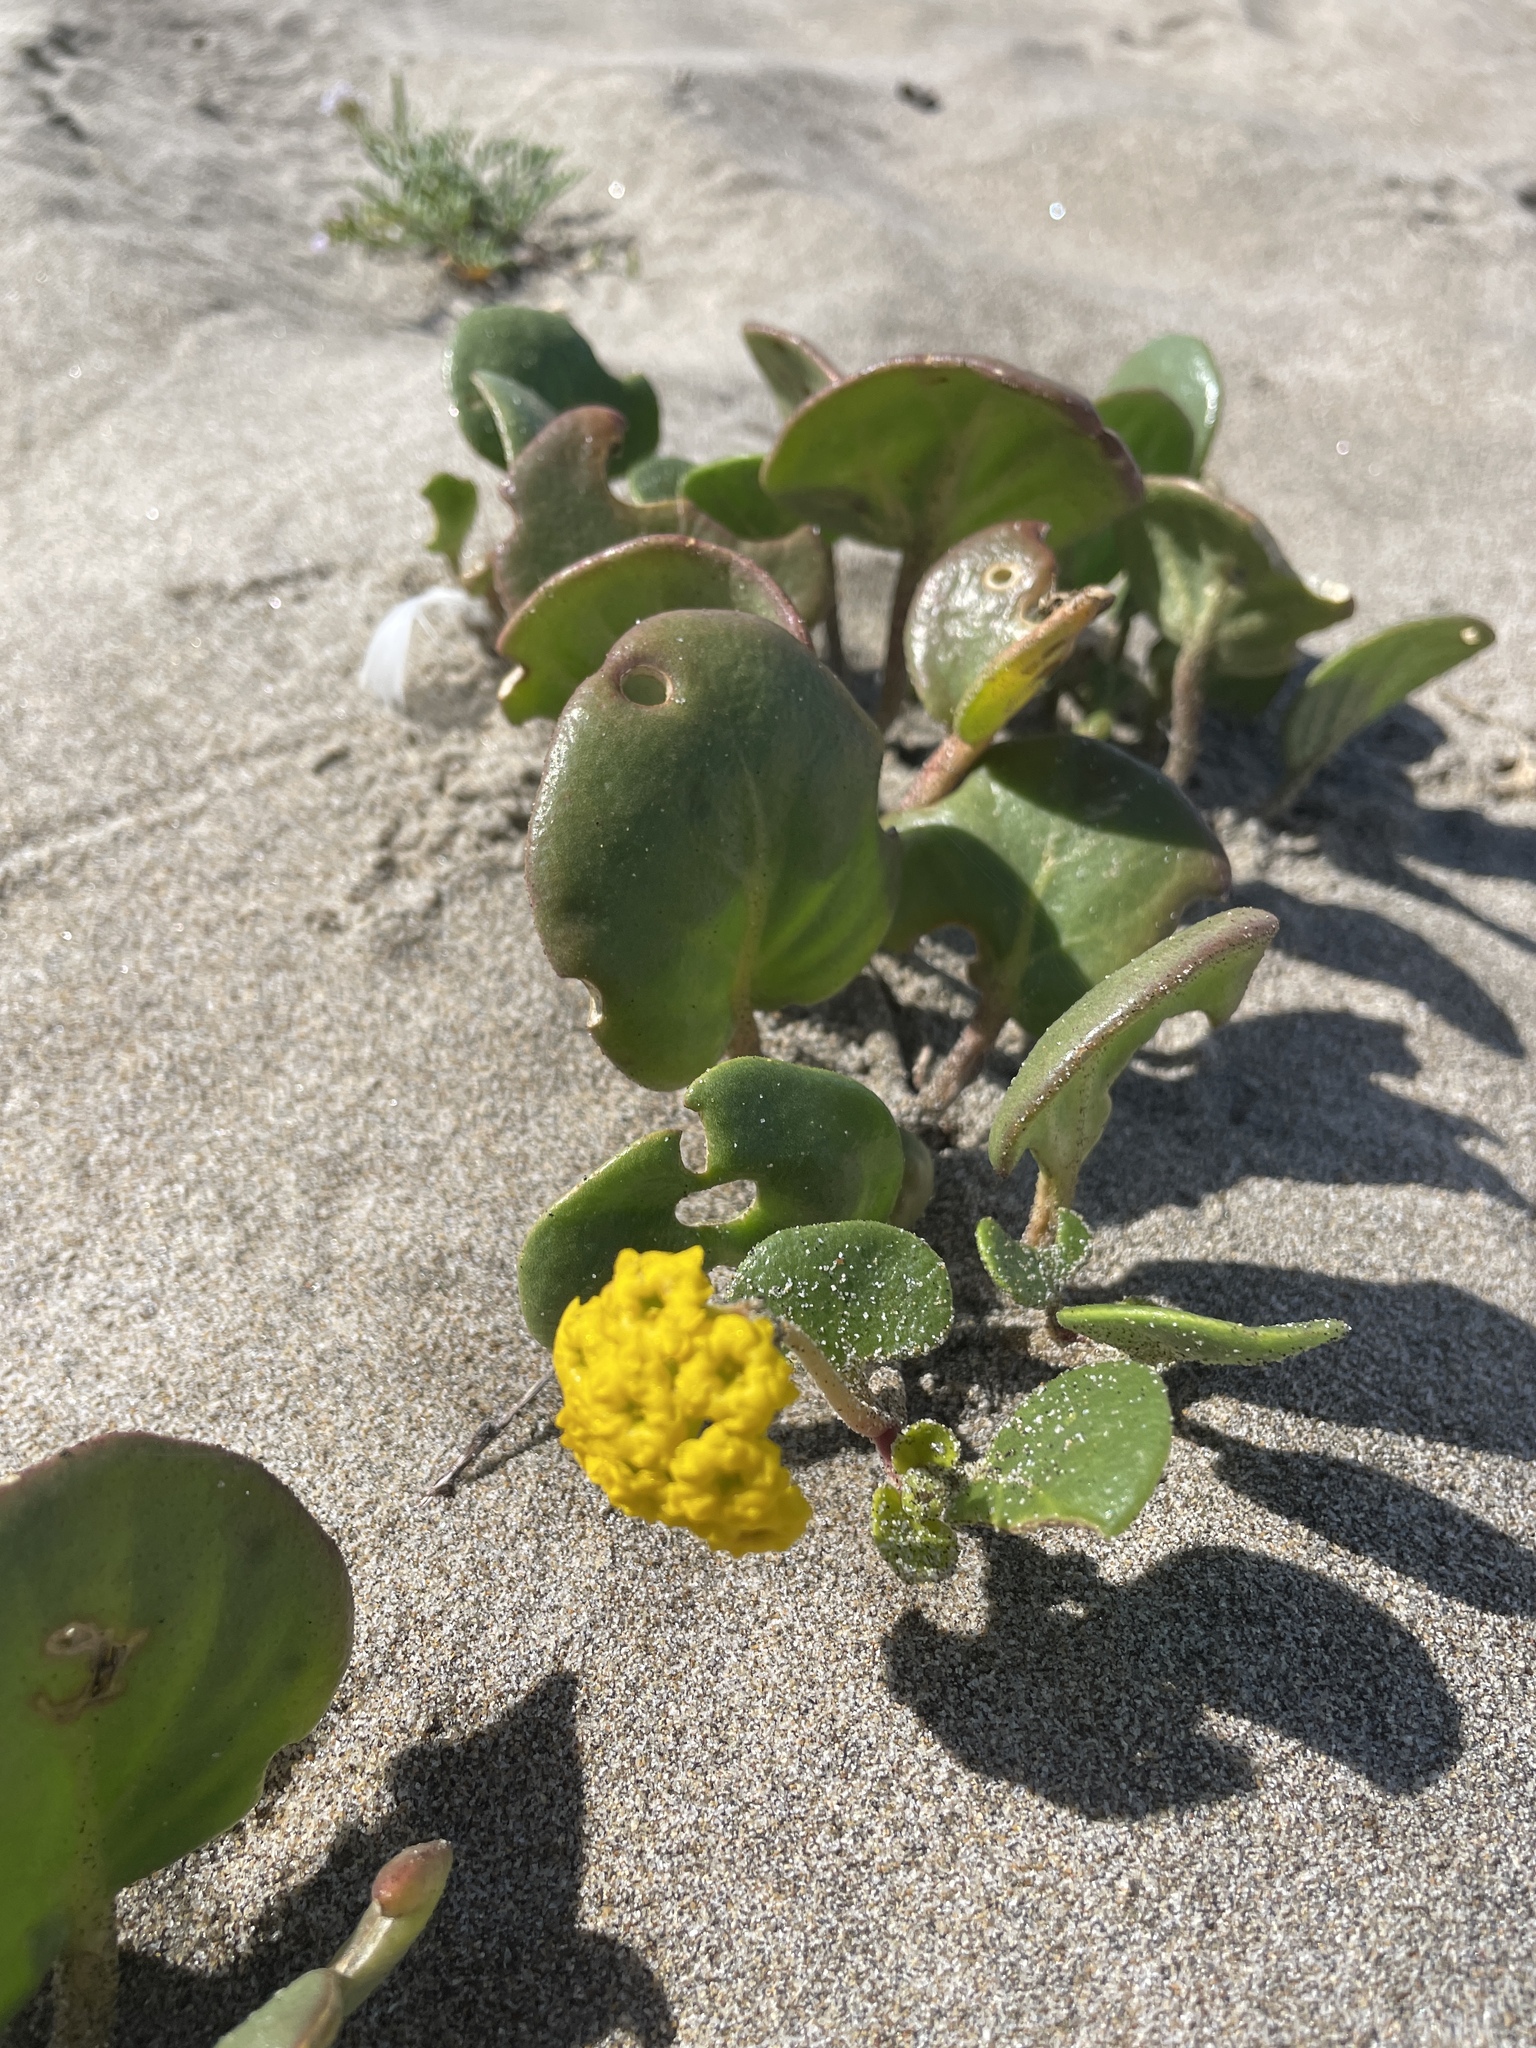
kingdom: Plantae
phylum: Tracheophyta
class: Magnoliopsida
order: Caryophyllales
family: Nyctaginaceae
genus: Abronia
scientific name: Abronia latifolia
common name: Yellow sand-verbena
